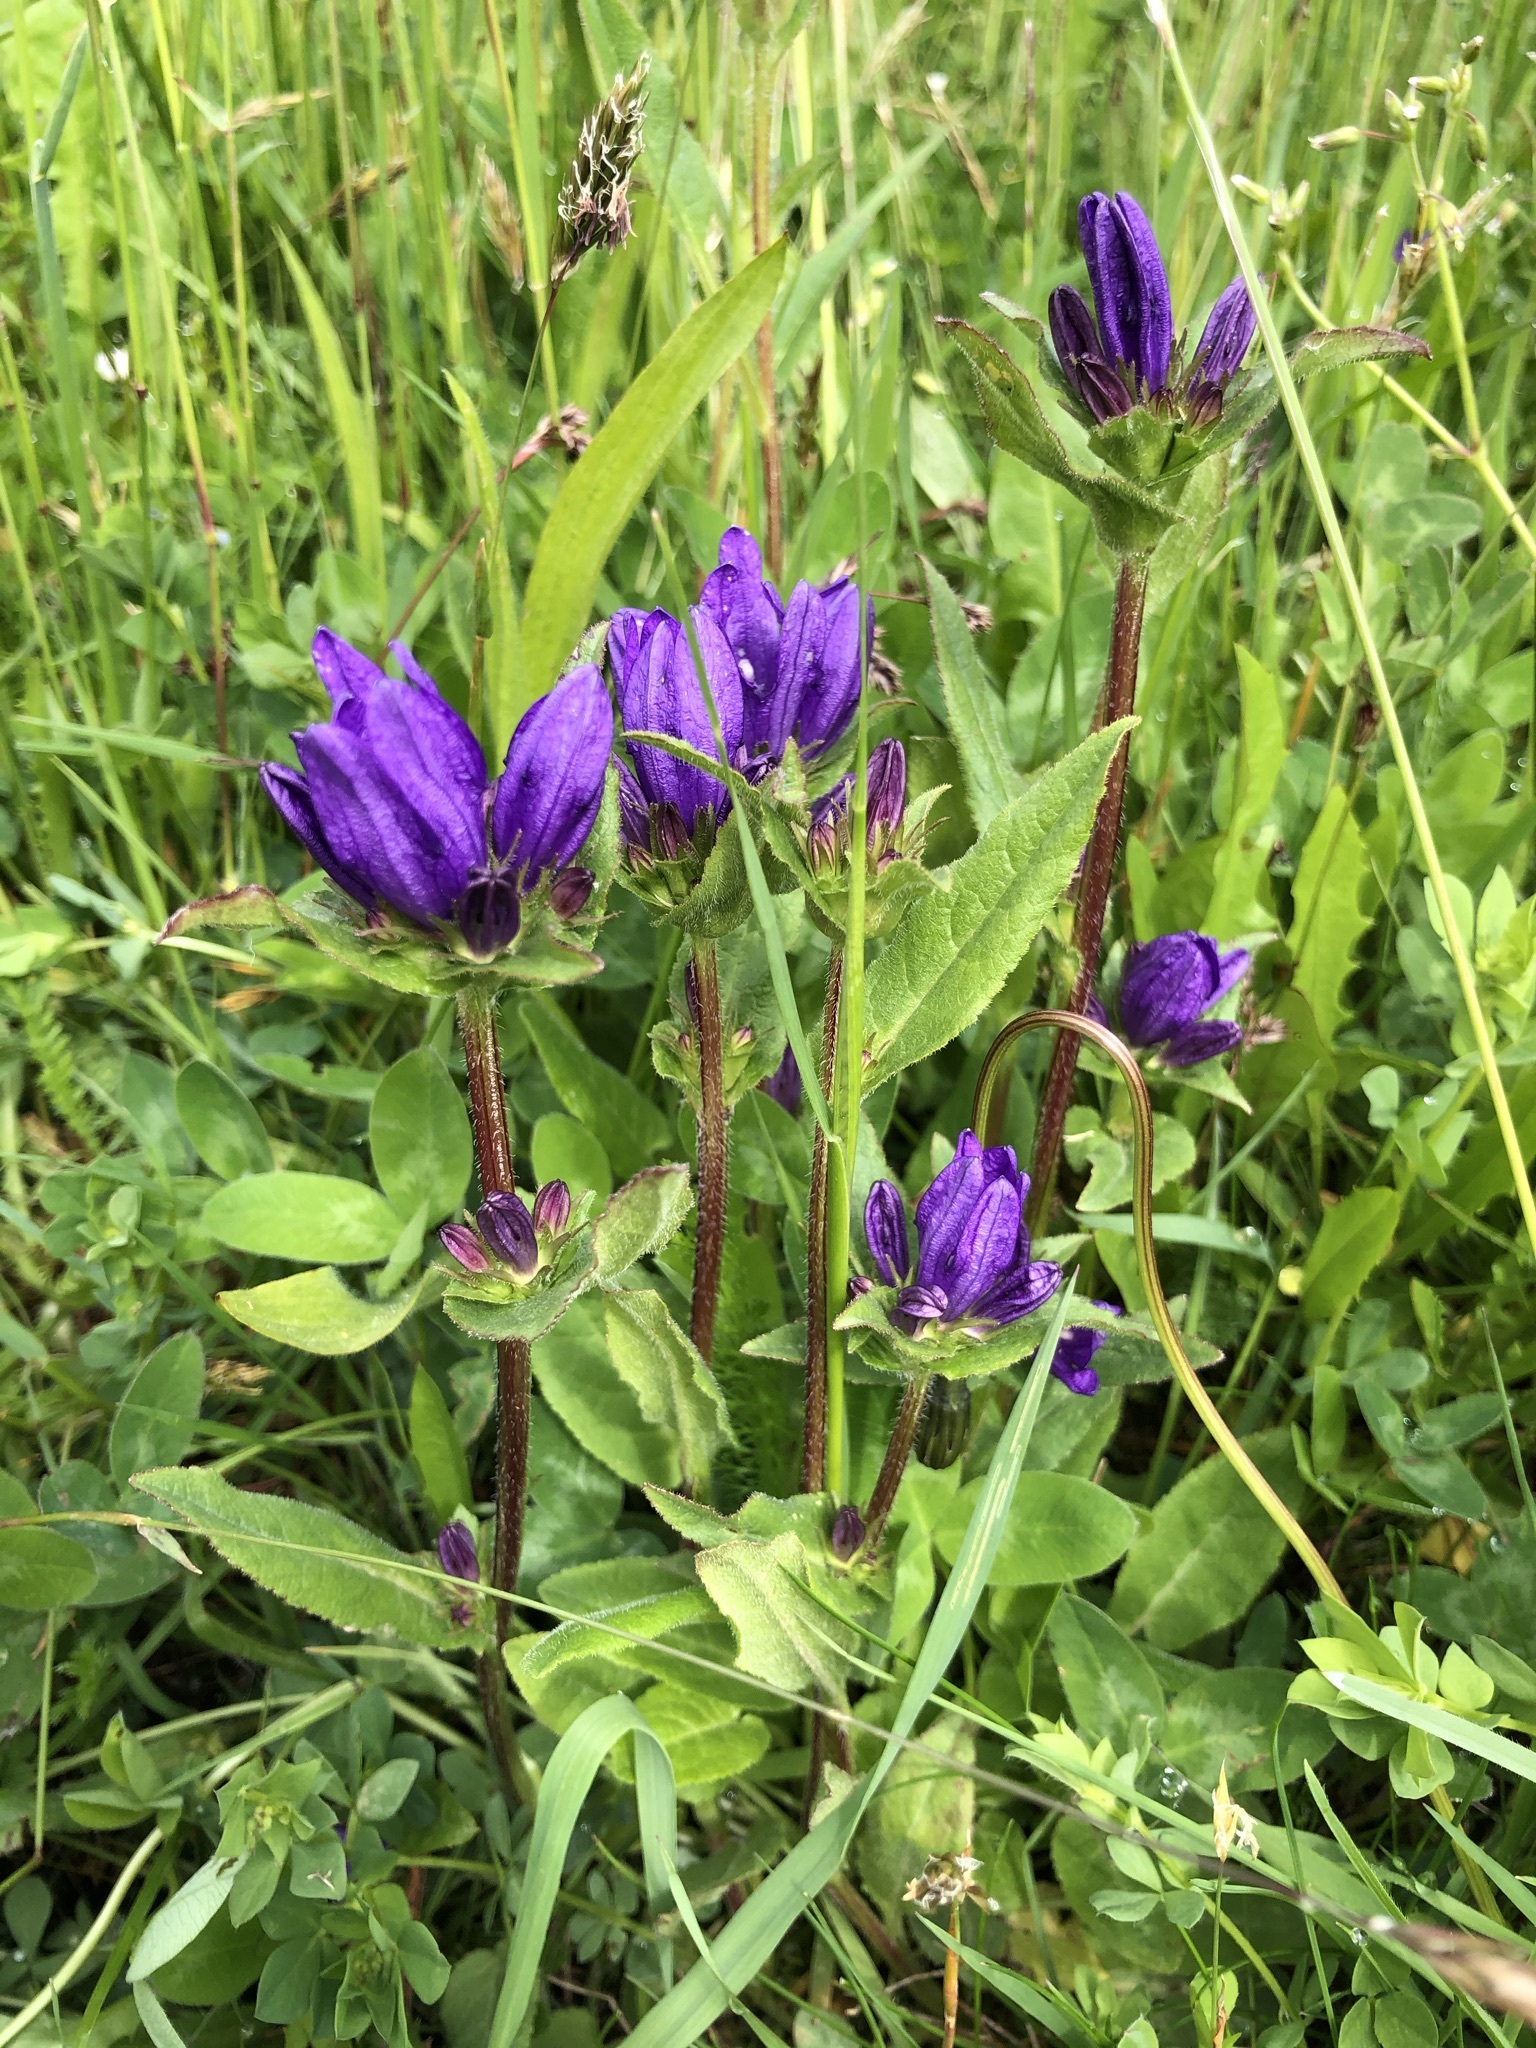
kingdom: Plantae
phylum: Tracheophyta
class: Magnoliopsida
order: Asterales
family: Campanulaceae
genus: Campanula
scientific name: Campanula glomerata
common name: Clustered bellflower
